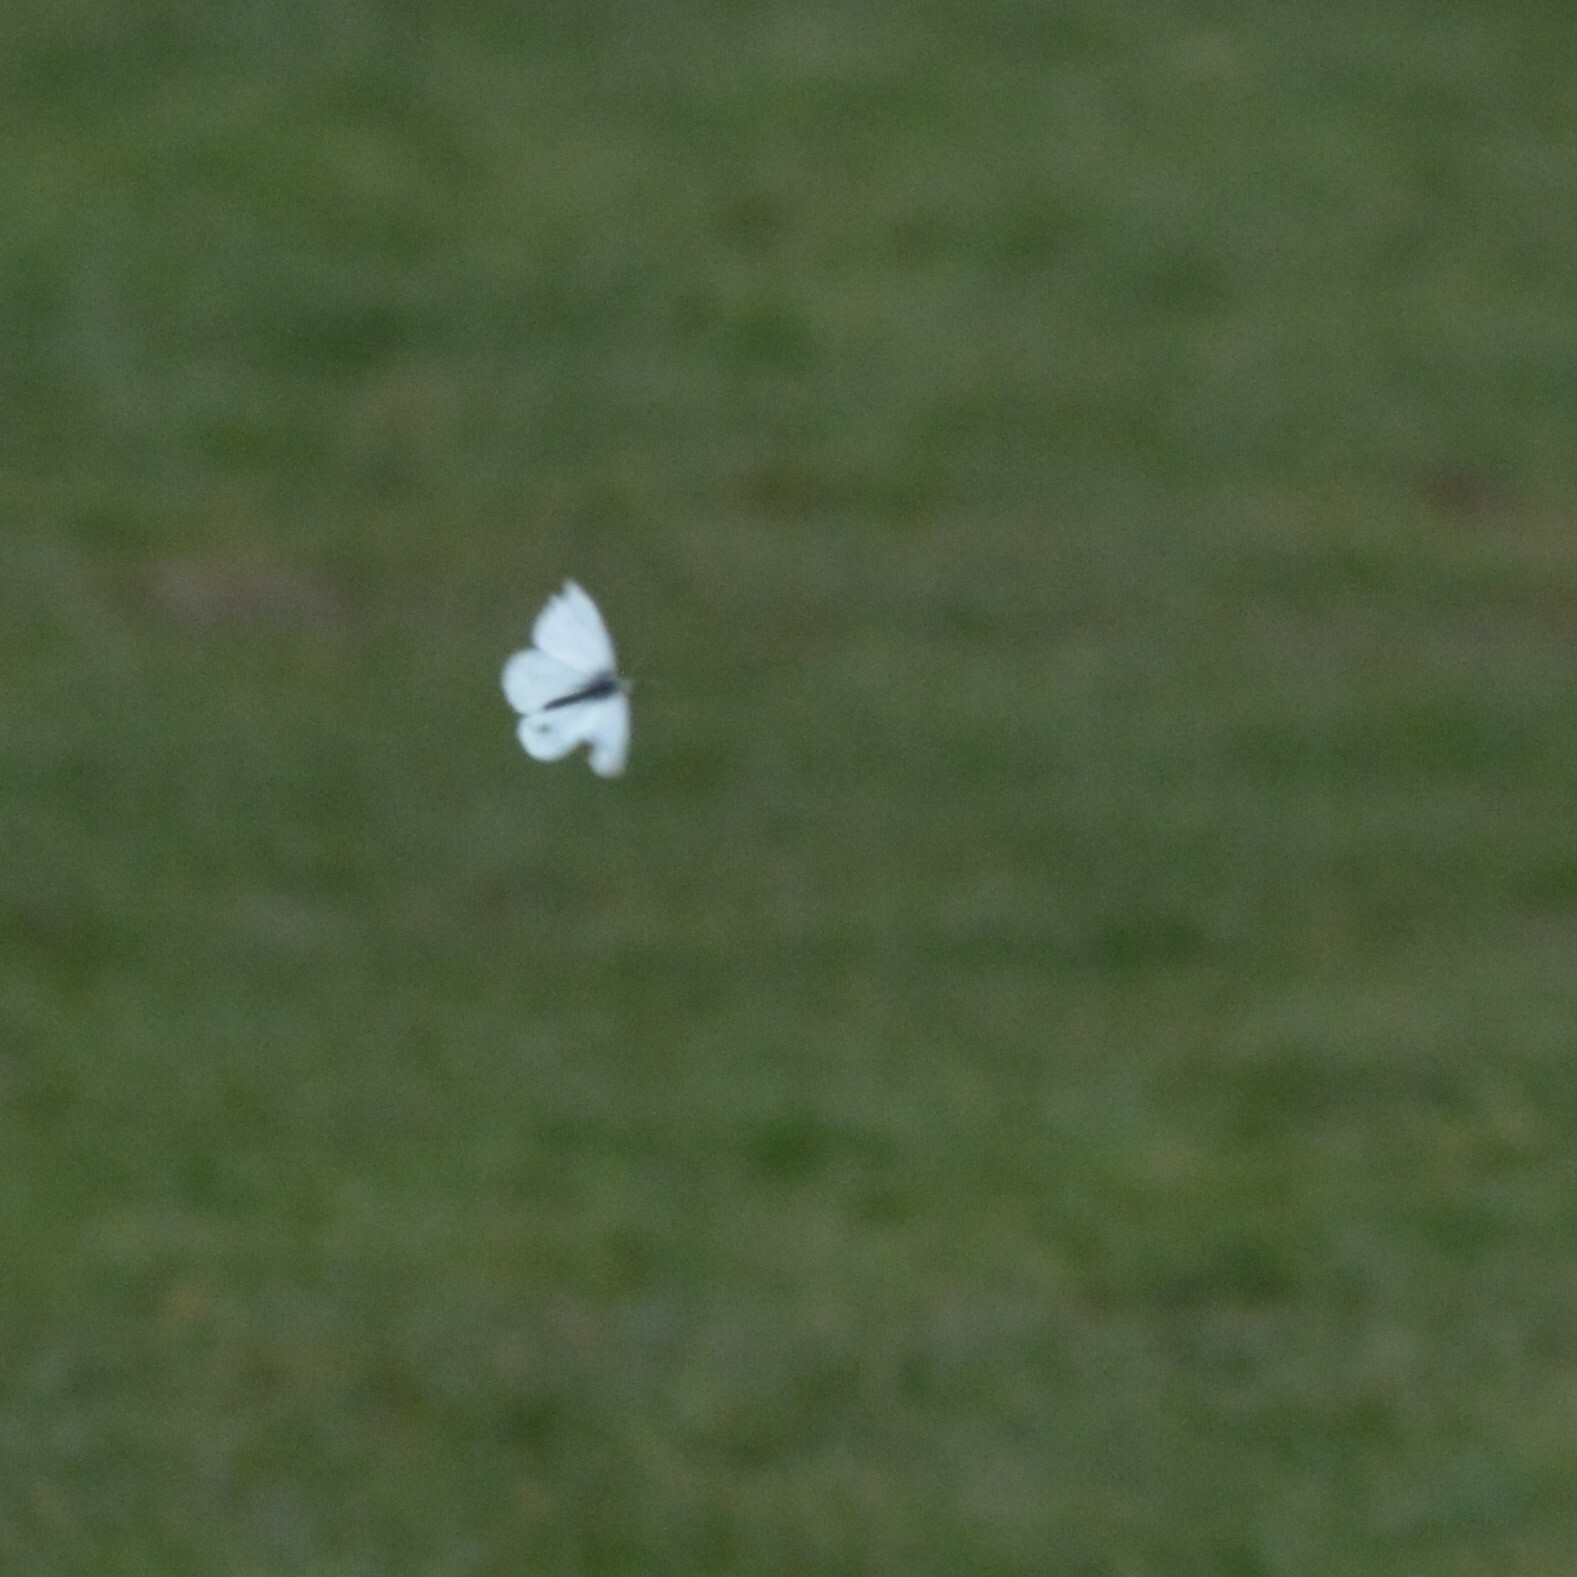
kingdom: Animalia
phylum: Arthropoda
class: Insecta
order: Lepidoptera
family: Pieridae
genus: Pieris
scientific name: Pieris rapae
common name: Small white
